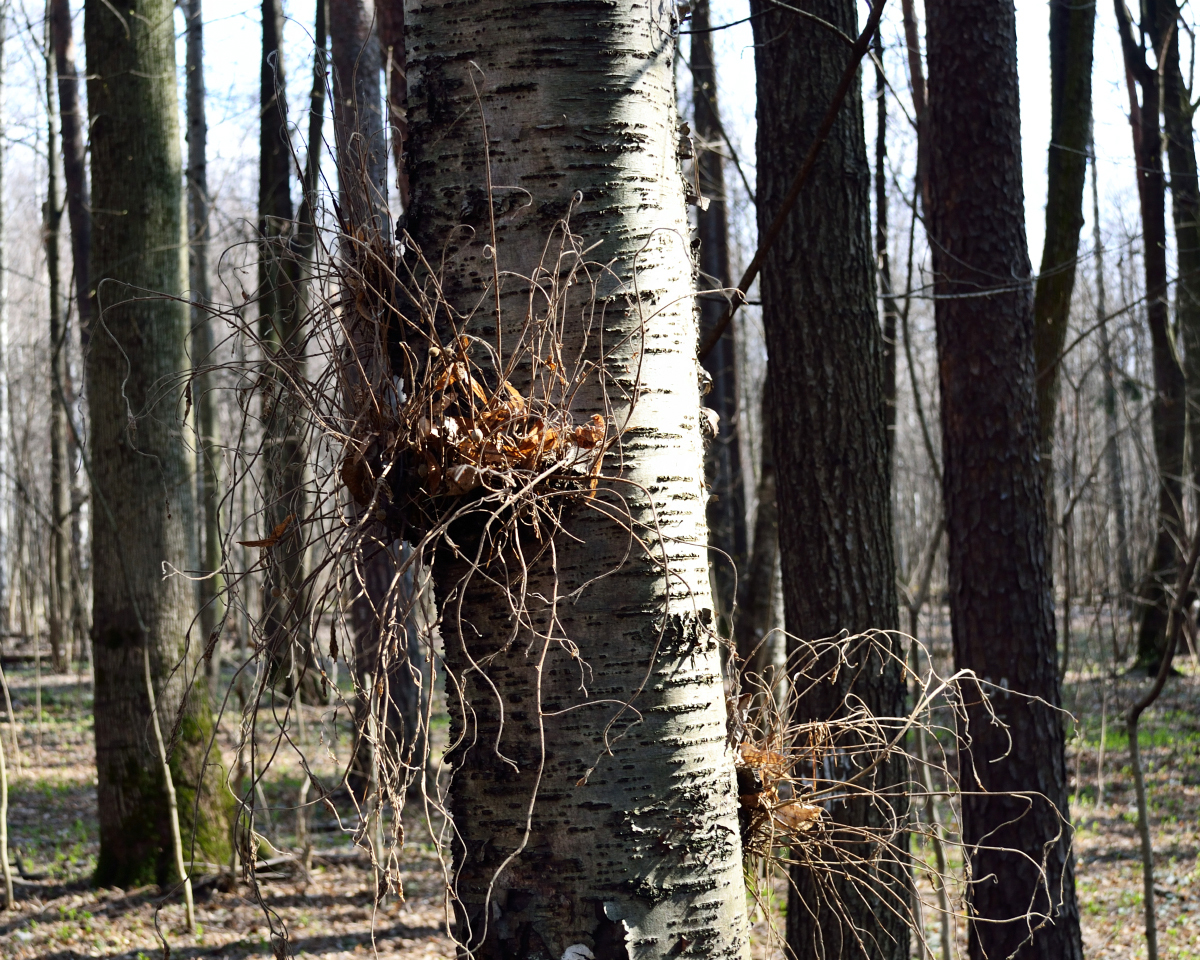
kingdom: Fungi
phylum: Ascomycota
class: Taphrinomycetes
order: Taphrinales
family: Taphrinaceae
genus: Taphrina
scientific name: Taphrina betulina
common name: Birch besom
